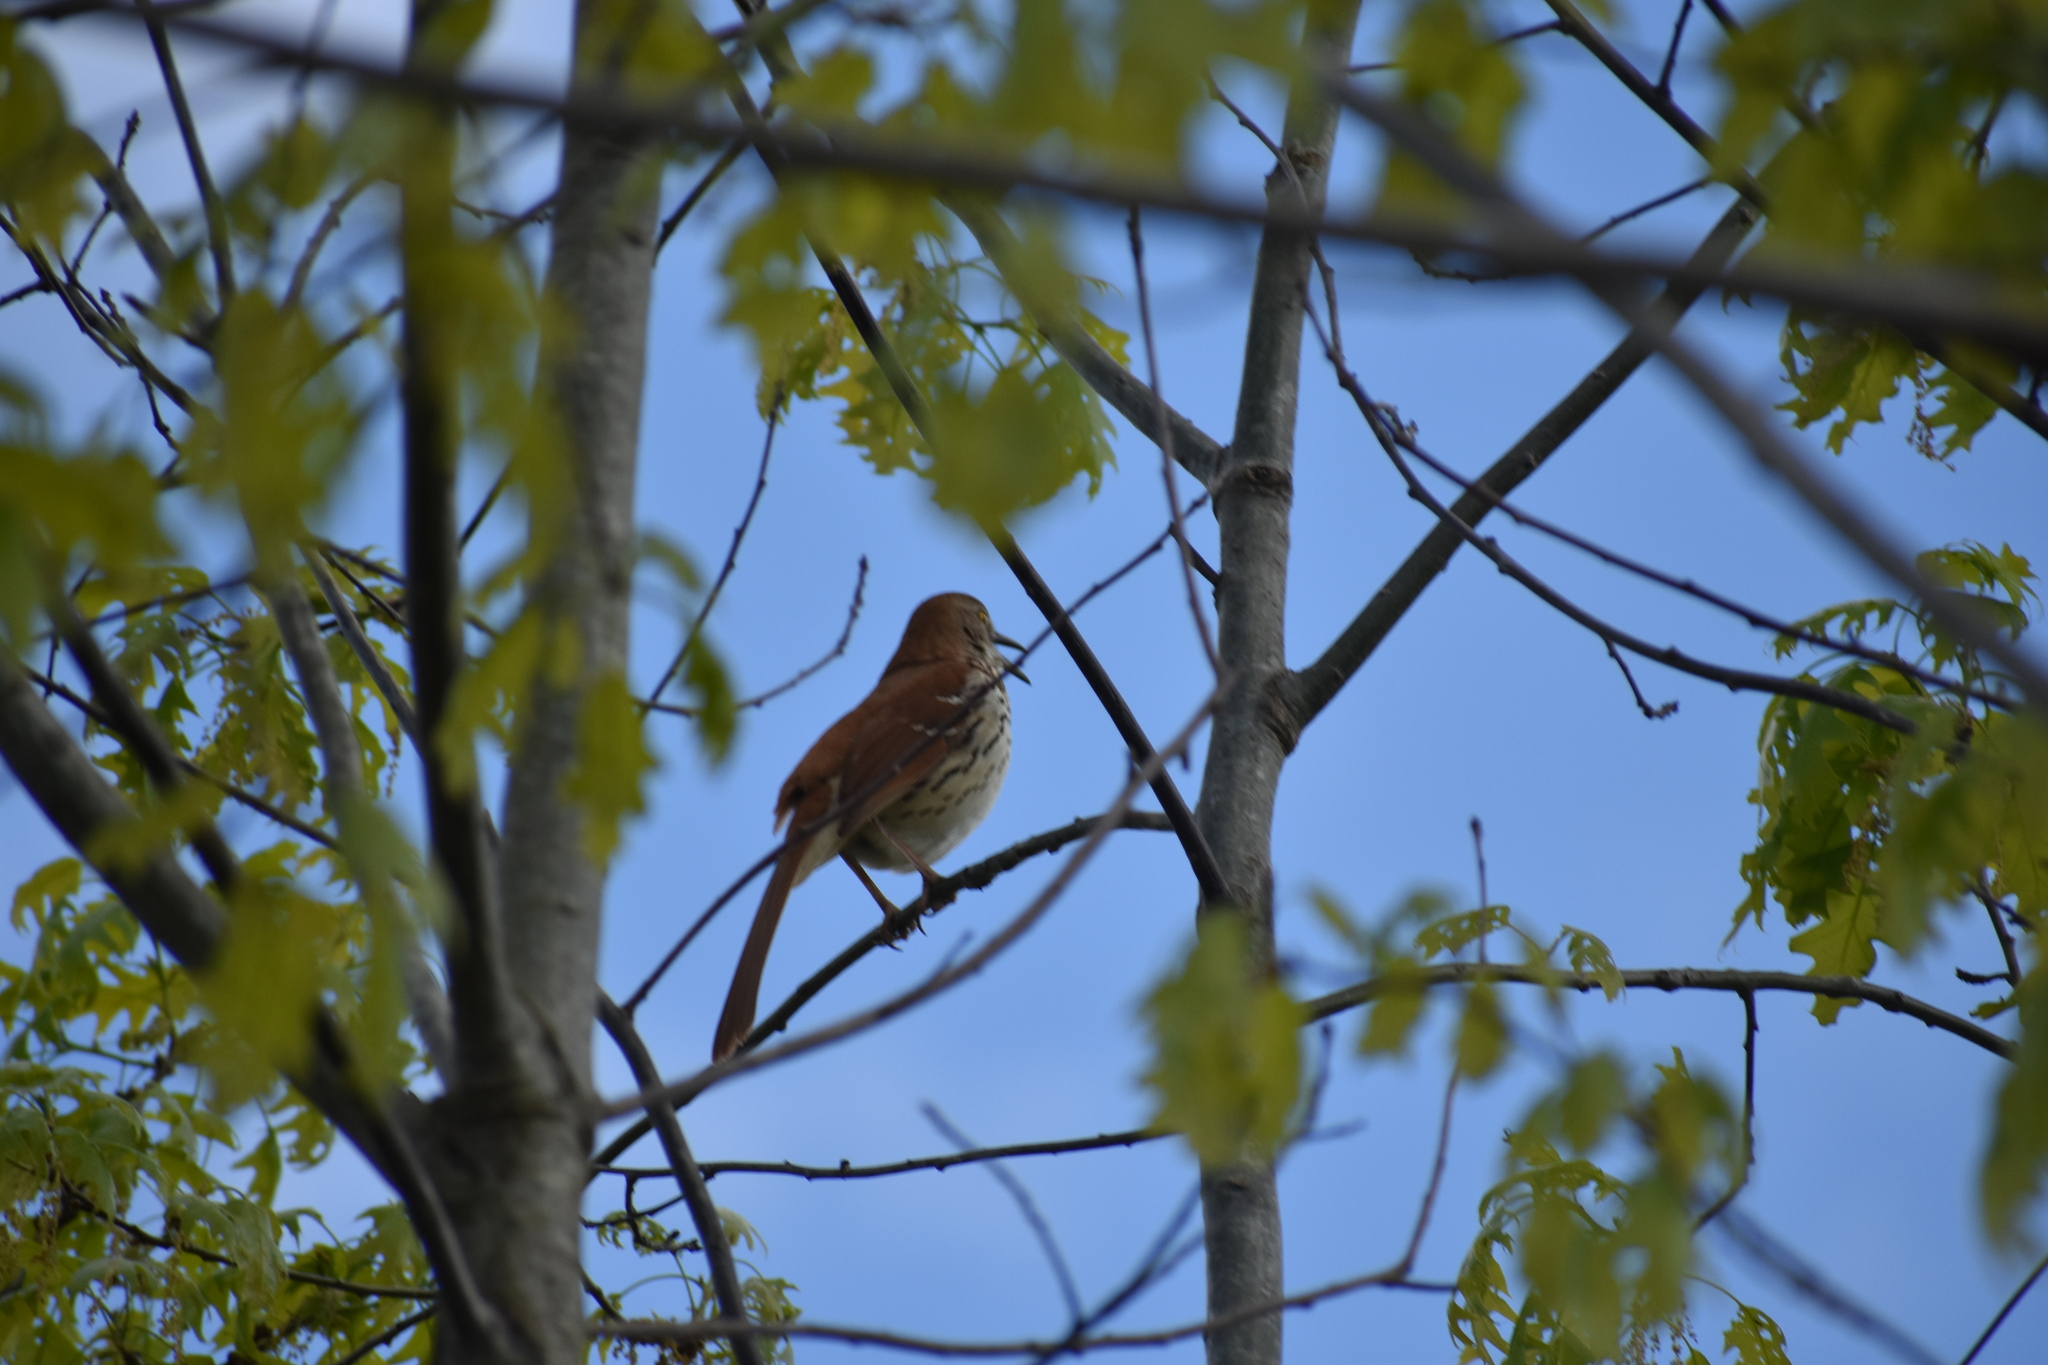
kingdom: Animalia
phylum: Chordata
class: Aves
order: Passeriformes
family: Mimidae
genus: Toxostoma
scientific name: Toxostoma rufum
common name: Brown thrasher
